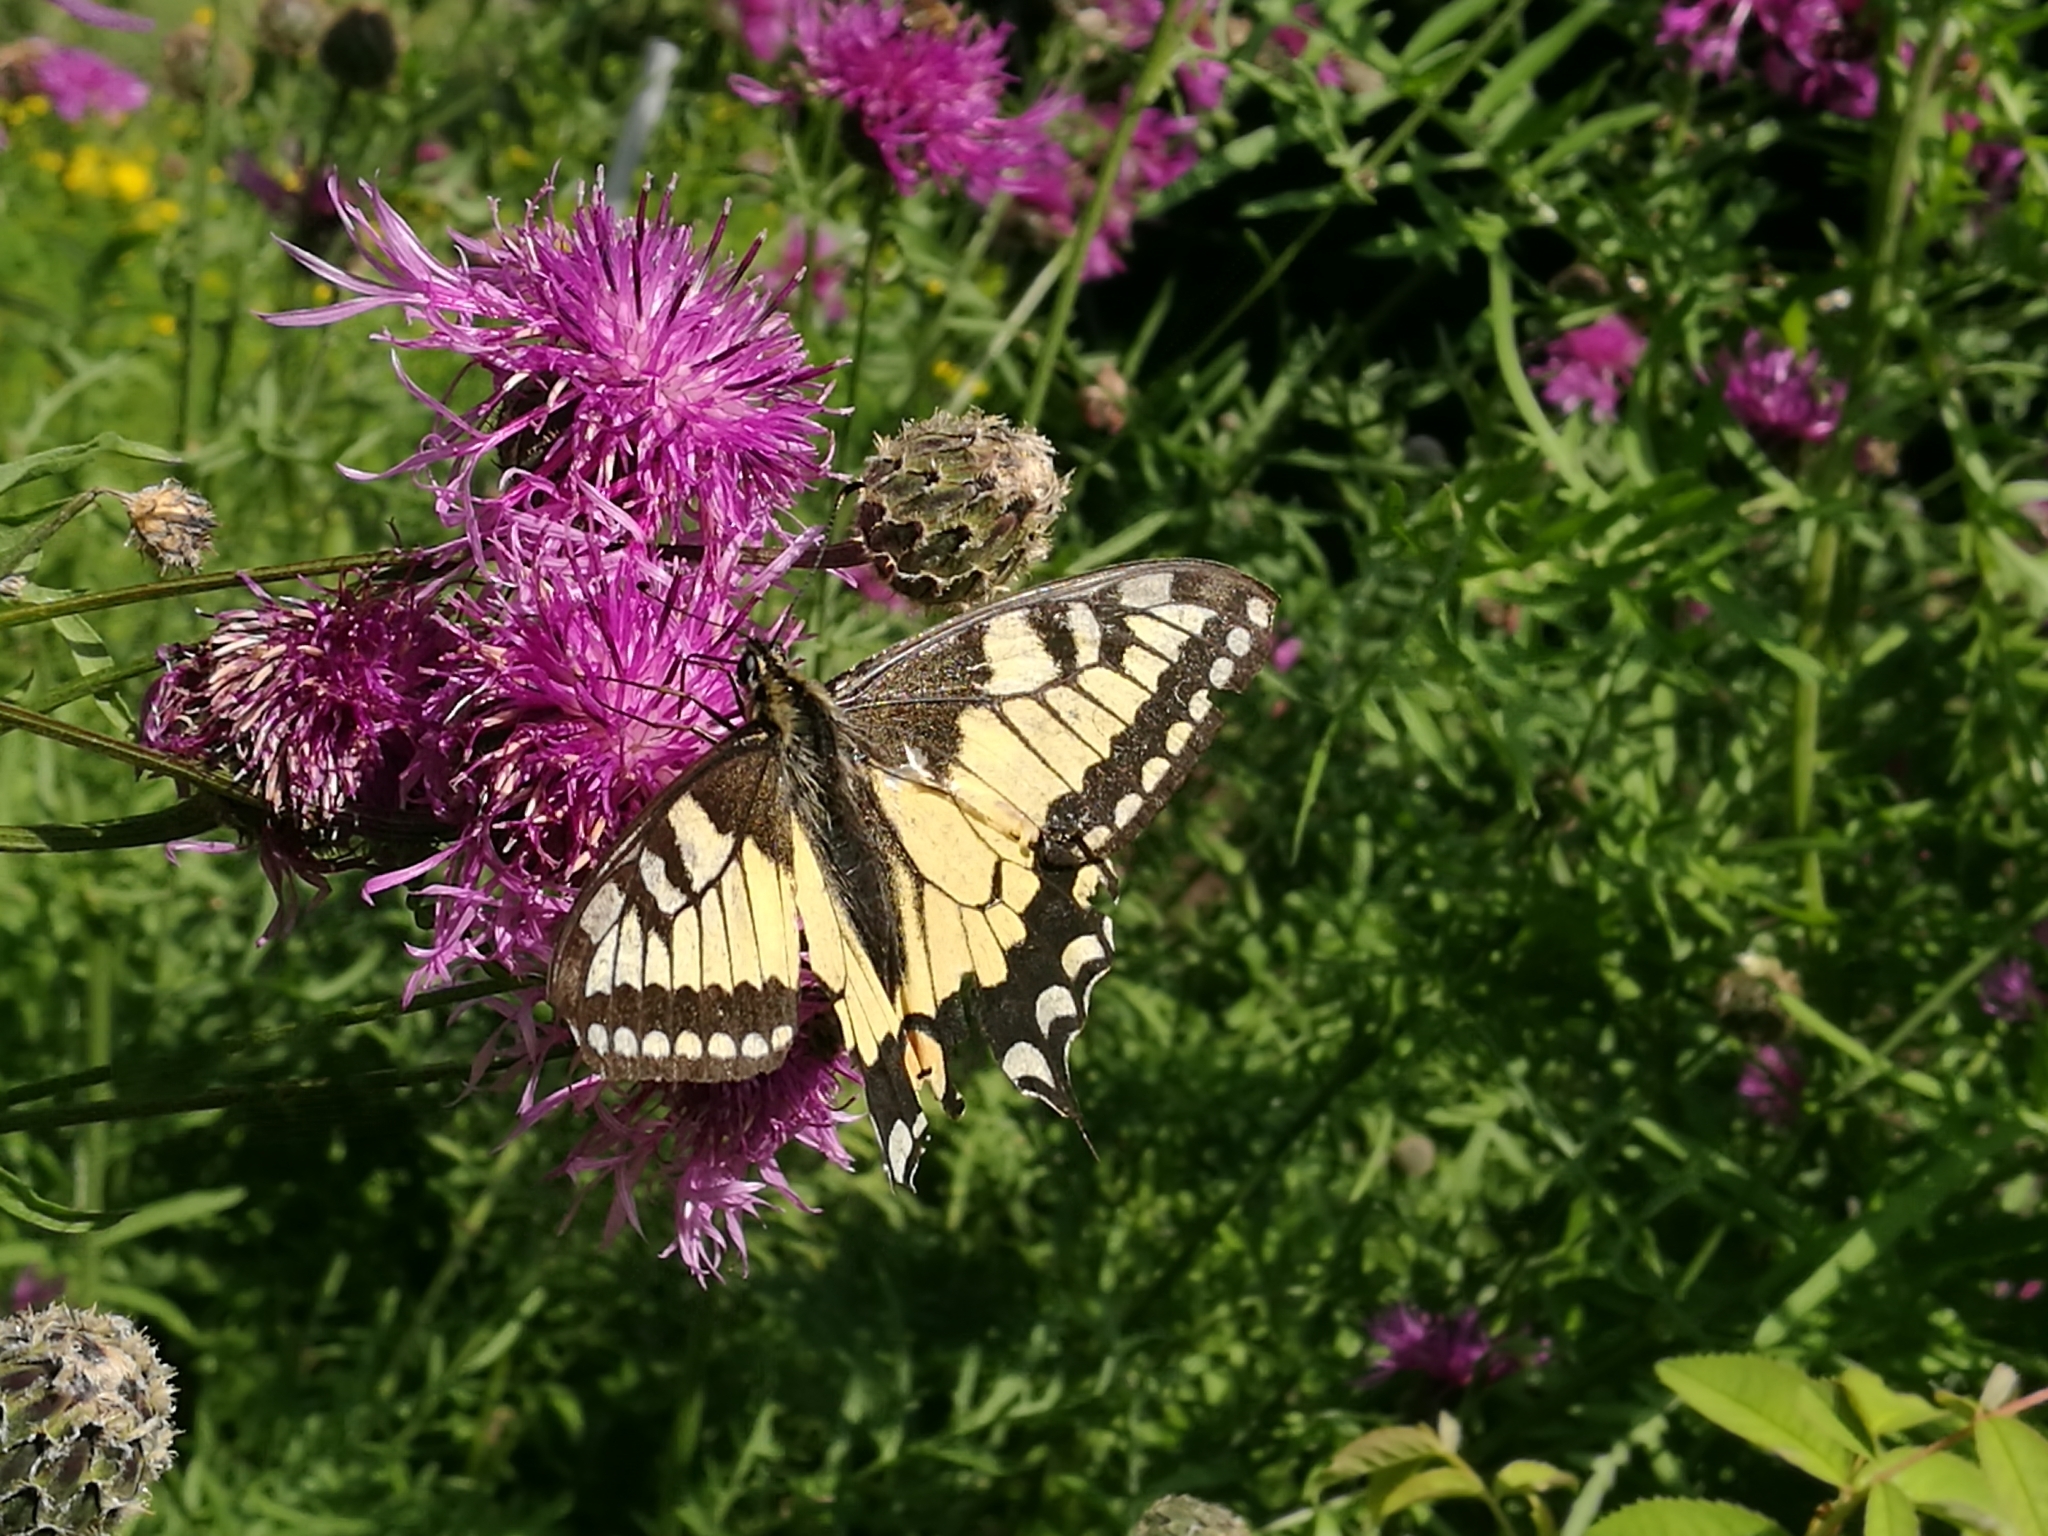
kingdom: Animalia
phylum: Arthropoda
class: Insecta
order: Lepidoptera
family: Papilionidae
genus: Papilio
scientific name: Papilio machaon
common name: Swallowtail
